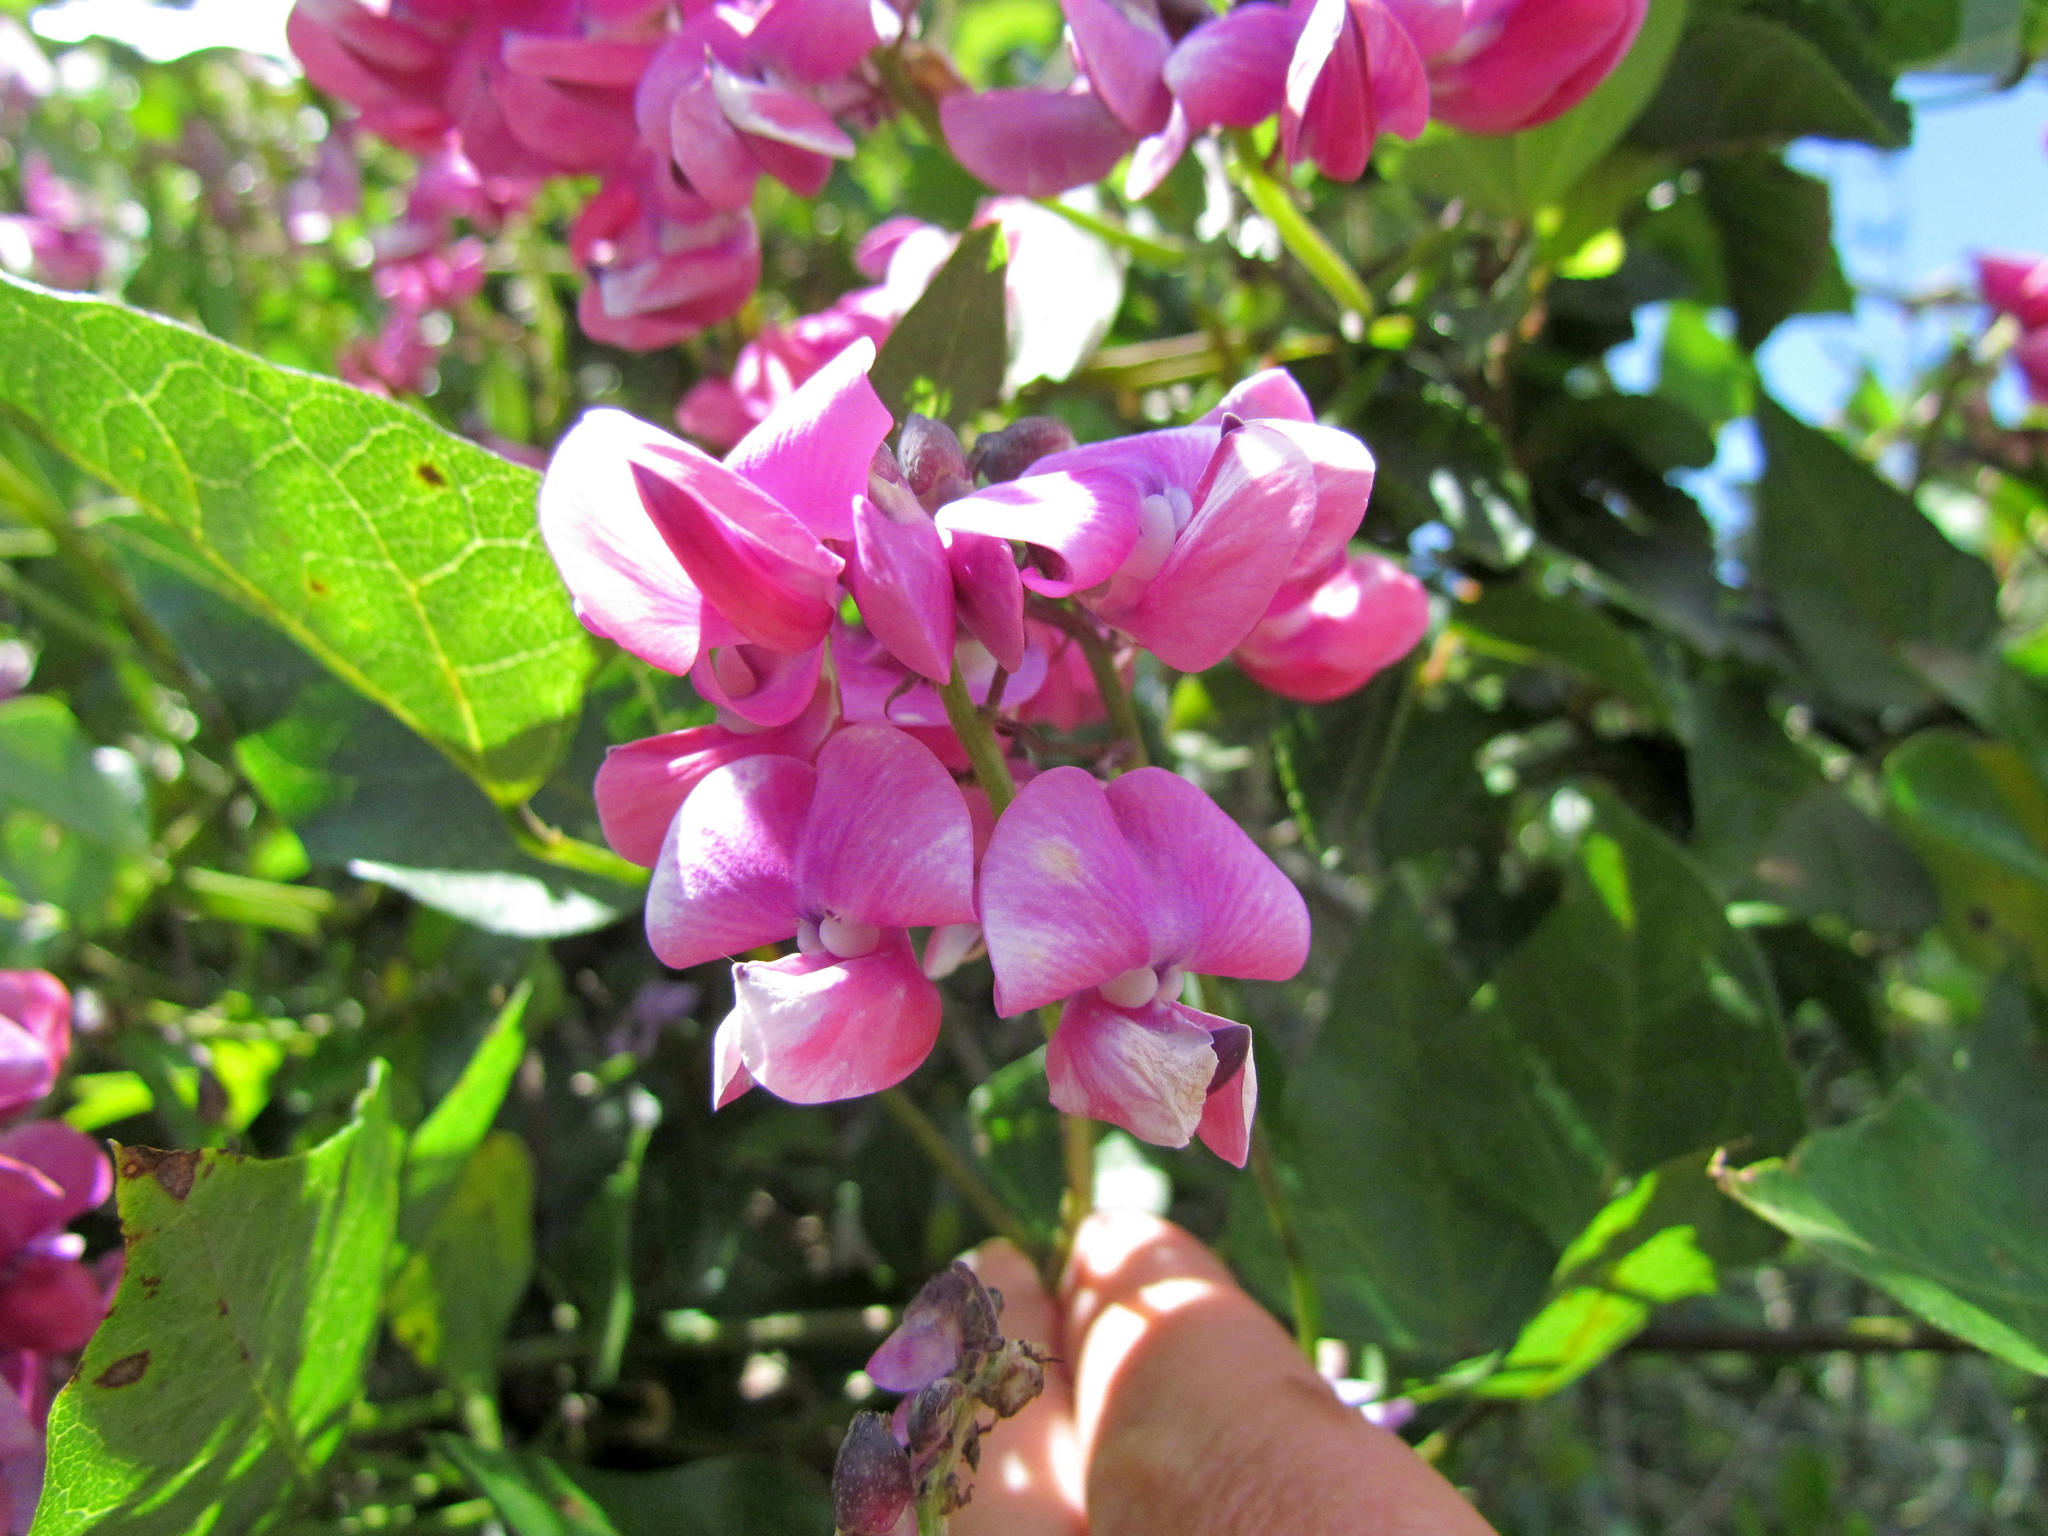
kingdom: Plantae
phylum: Tracheophyta
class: Magnoliopsida
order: Fabales
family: Fabaceae
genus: Dipogon
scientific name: Dipogon lignosus
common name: Okie bean
